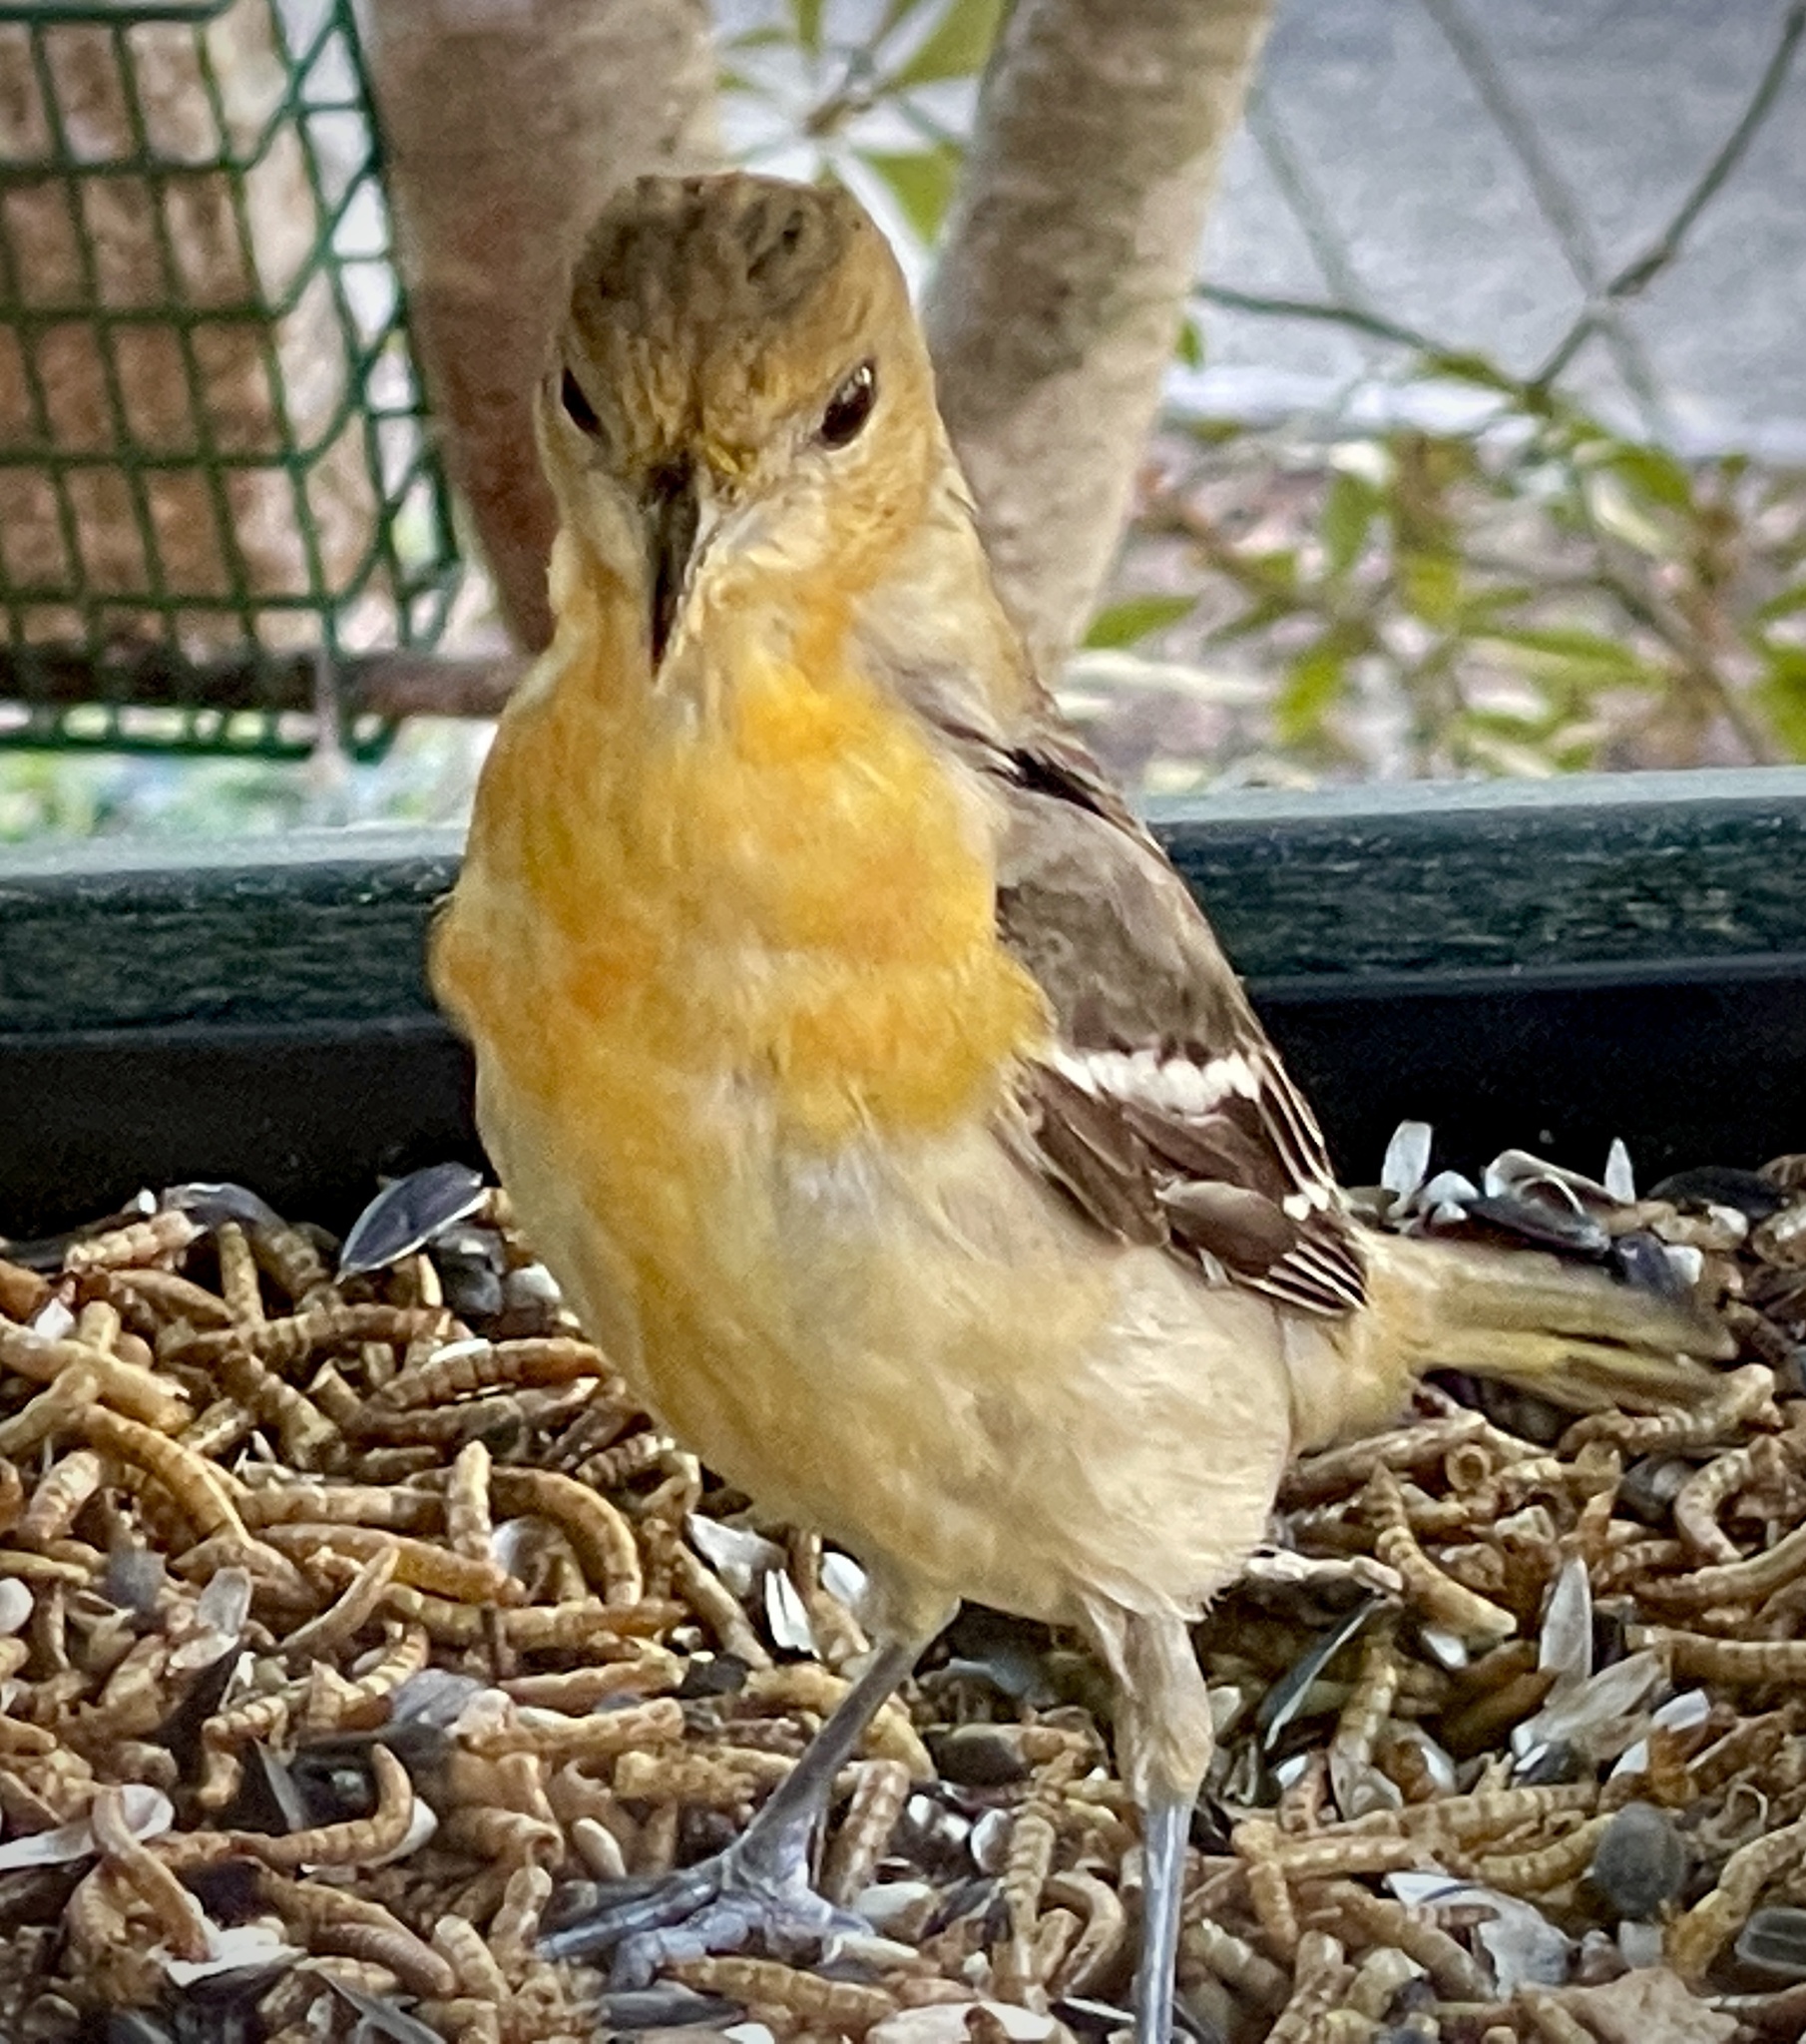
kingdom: Animalia
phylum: Chordata
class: Aves
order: Passeriformes
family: Icteridae
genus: Icterus
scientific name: Icterus galbula
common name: Baltimore oriole
